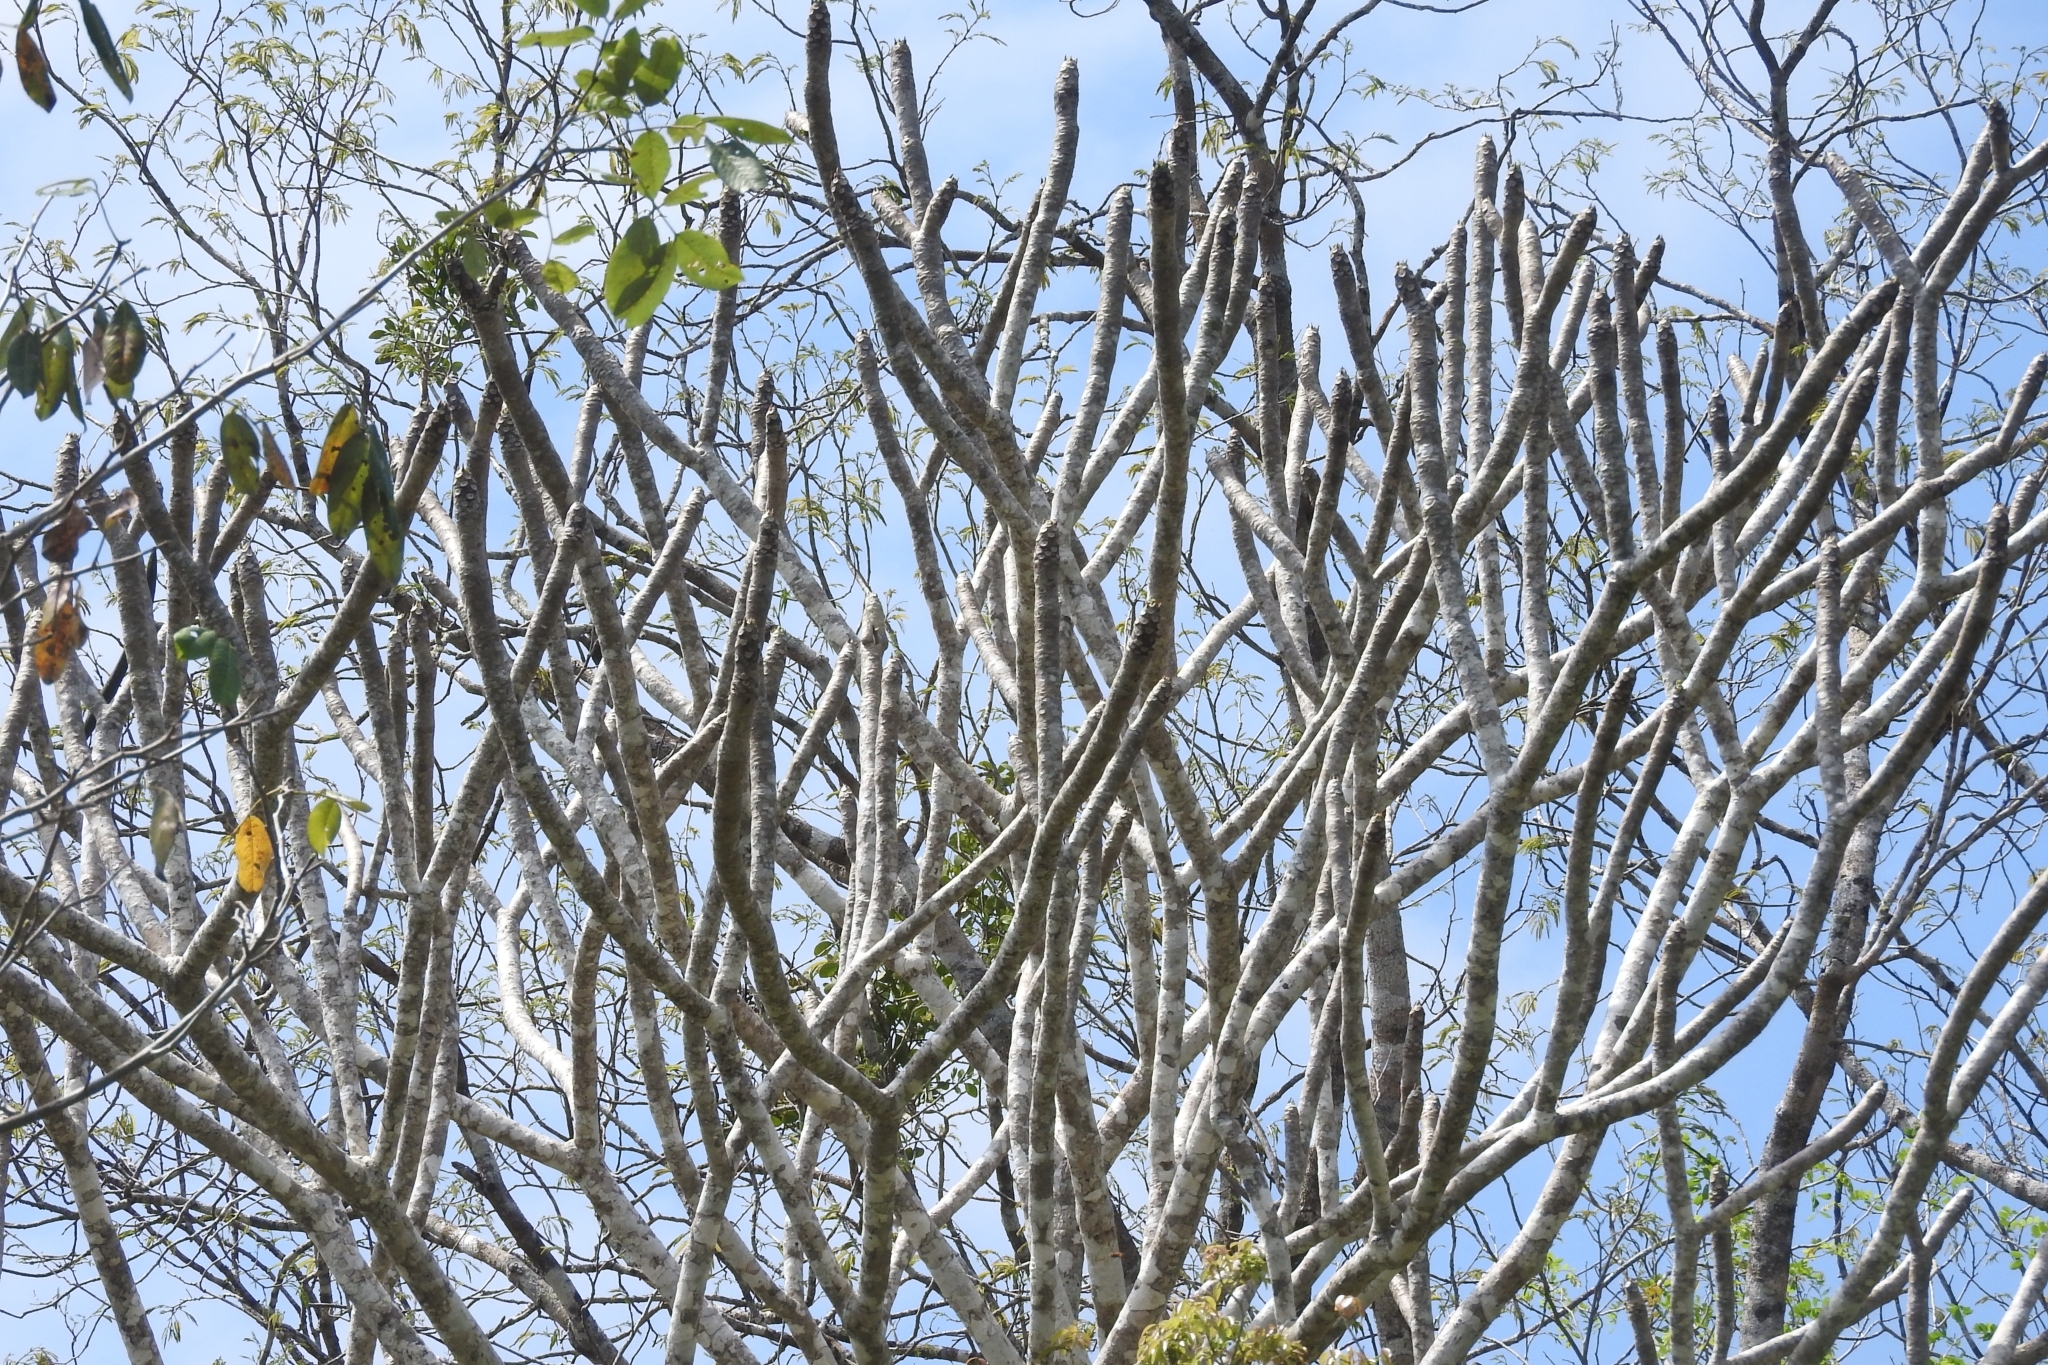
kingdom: Plantae
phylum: Tracheophyta
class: Magnoliopsida
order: Gentianales
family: Apocynaceae
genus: Plumeria
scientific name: Plumeria rubra
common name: Pagoda-tree
